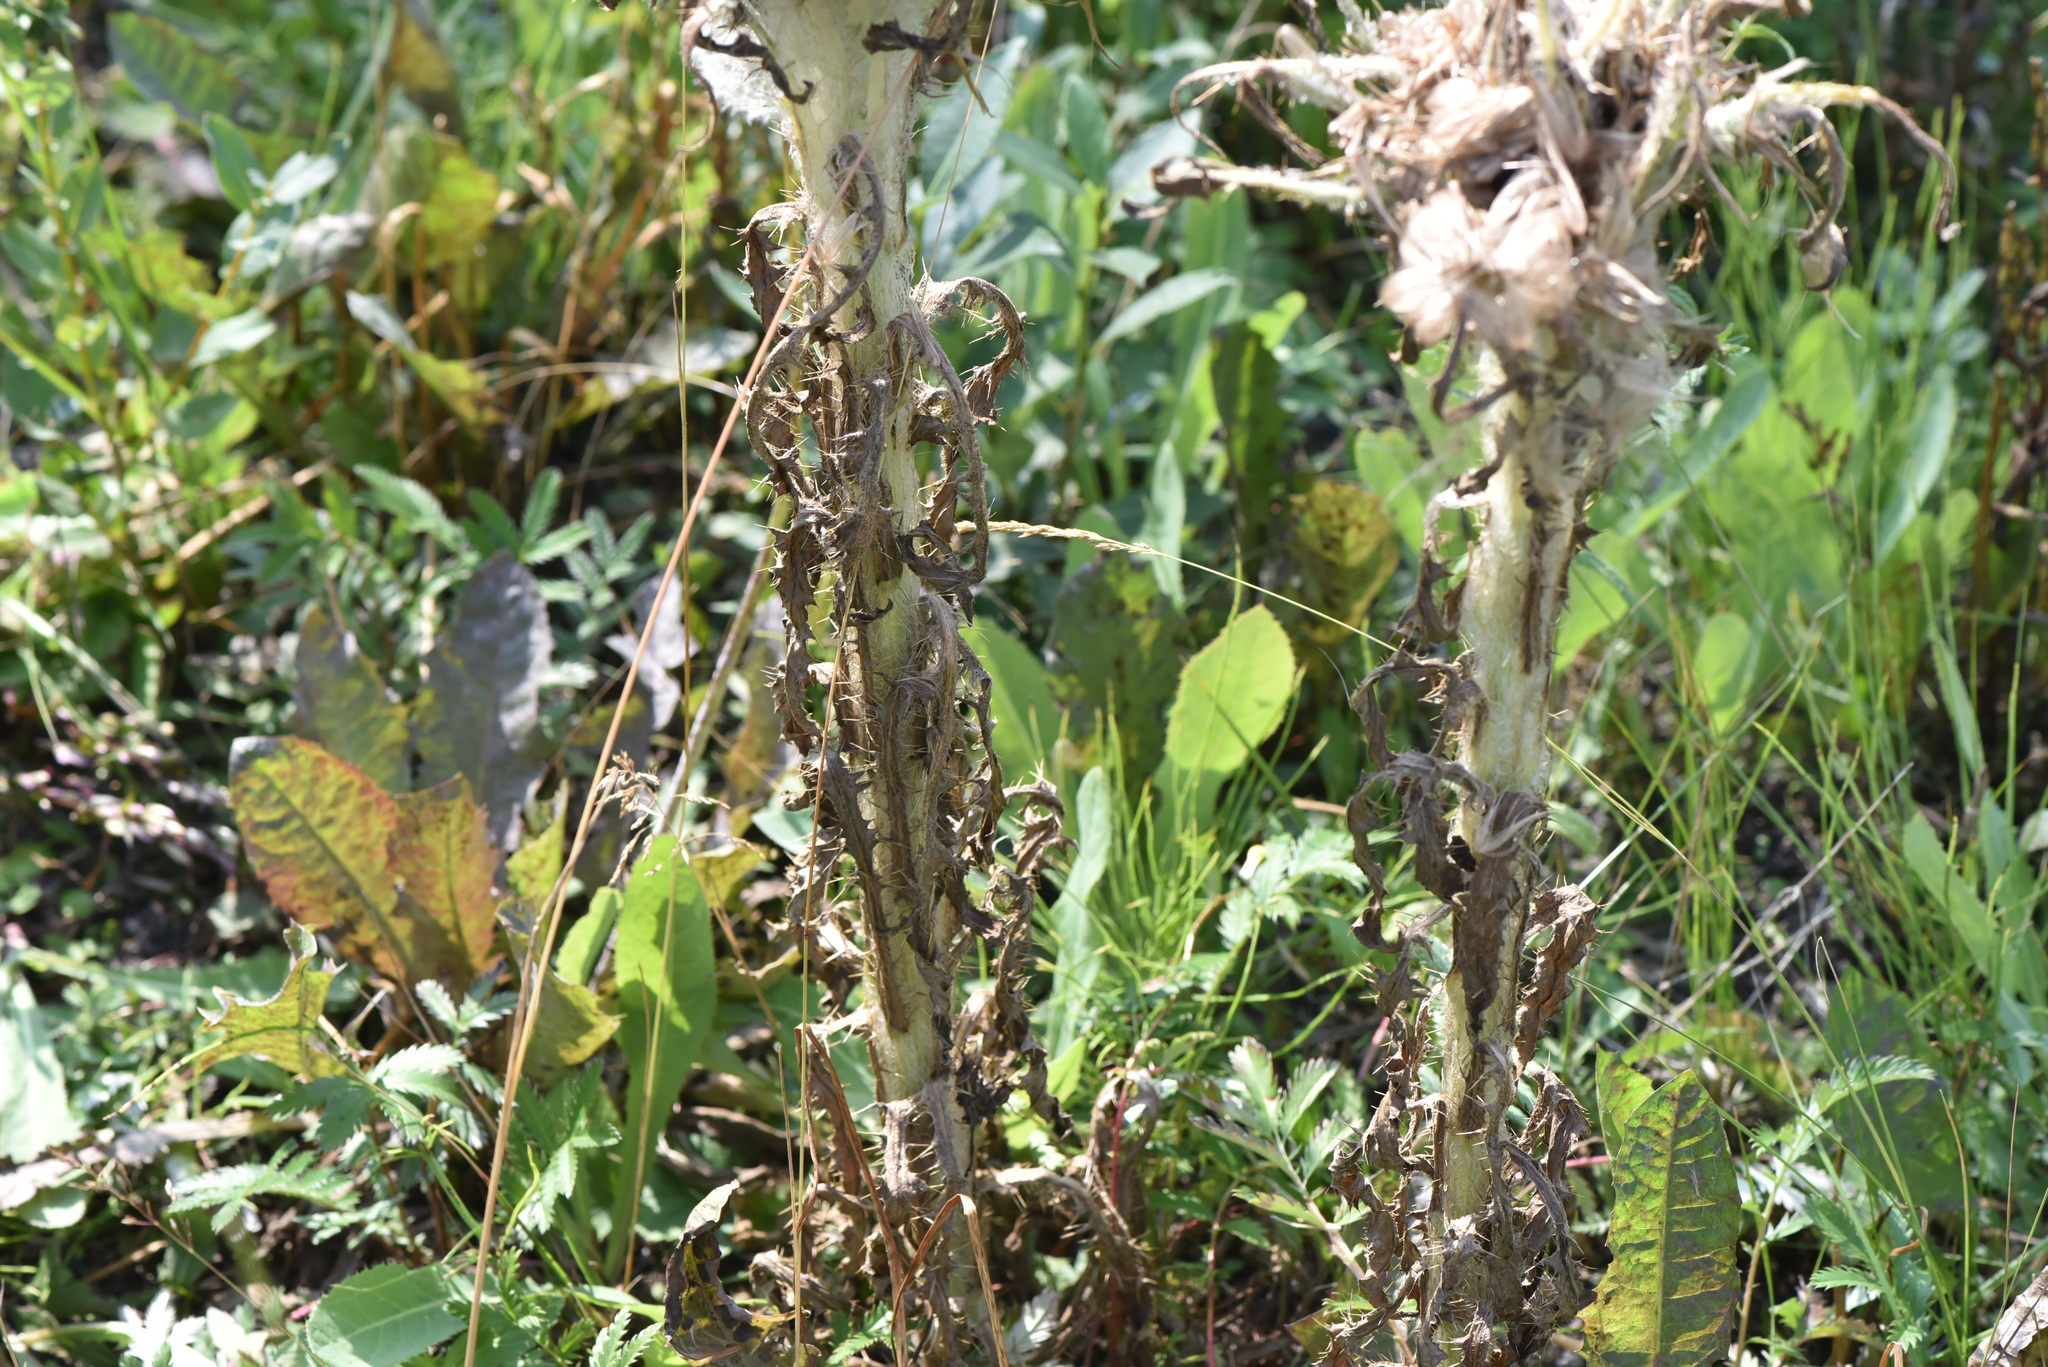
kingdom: Plantae
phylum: Tracheophyta
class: Magnoliopsida
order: Asterales
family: Asteraceae
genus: Cirsium
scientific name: Cirsium foliosum
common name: Elk thistle
